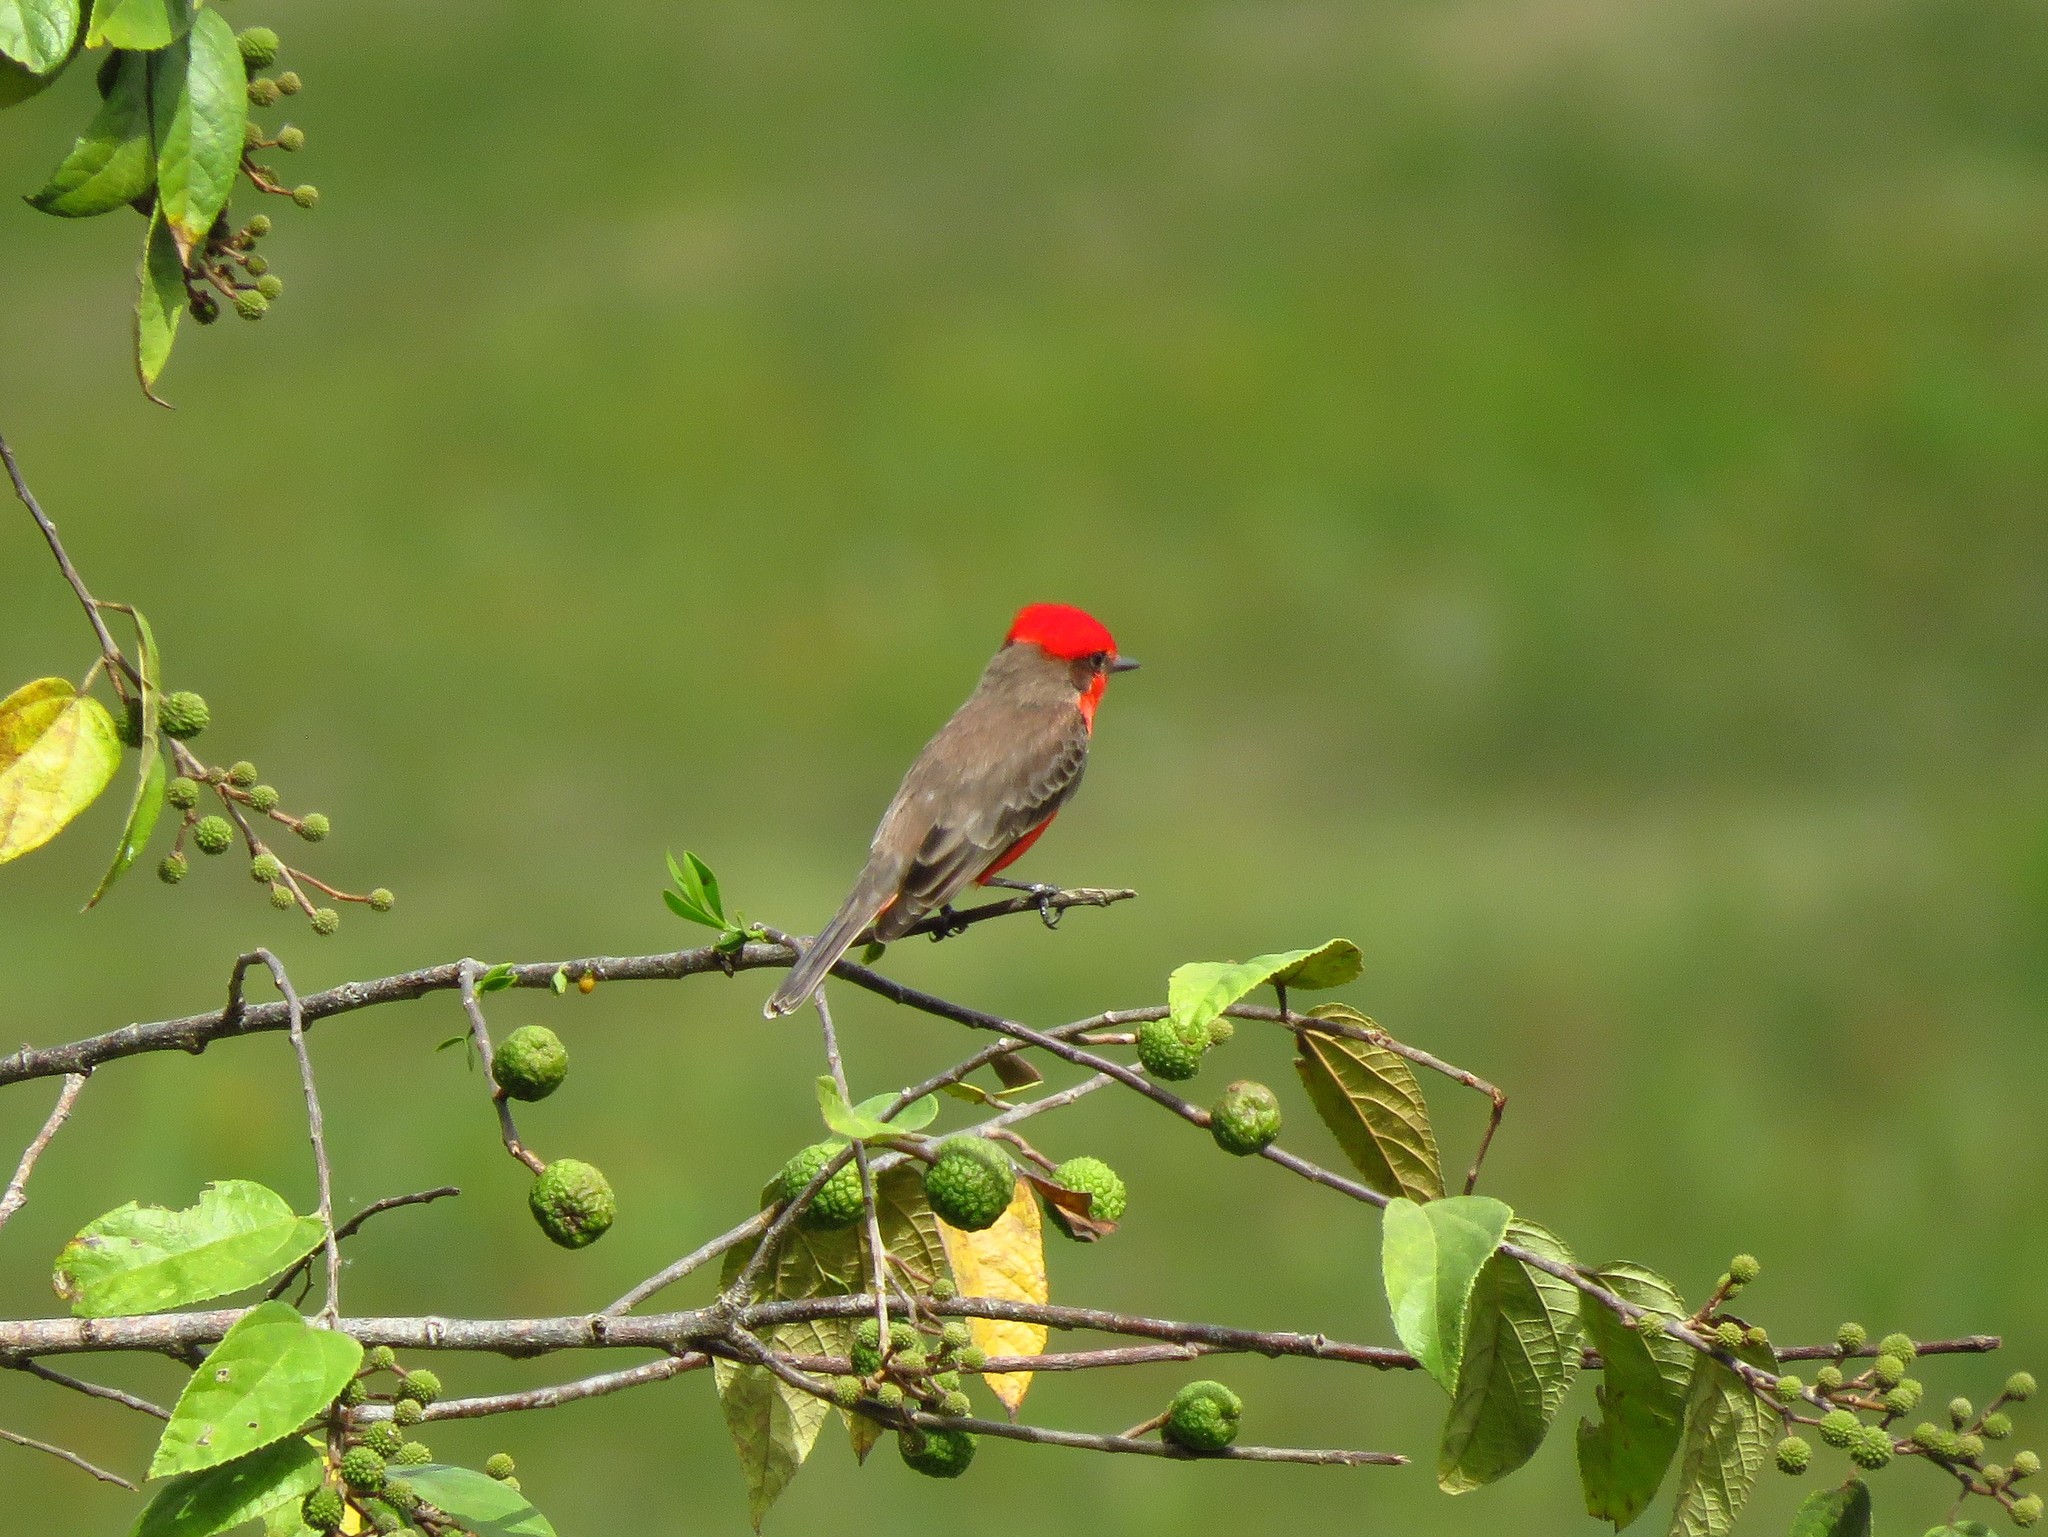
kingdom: Animalia
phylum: Chordata
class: Aves
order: Passeriformes
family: Tyrannidae
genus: Pyrocephalus
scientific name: Pyrocephalus rubinus
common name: Vermilion flycatcher
